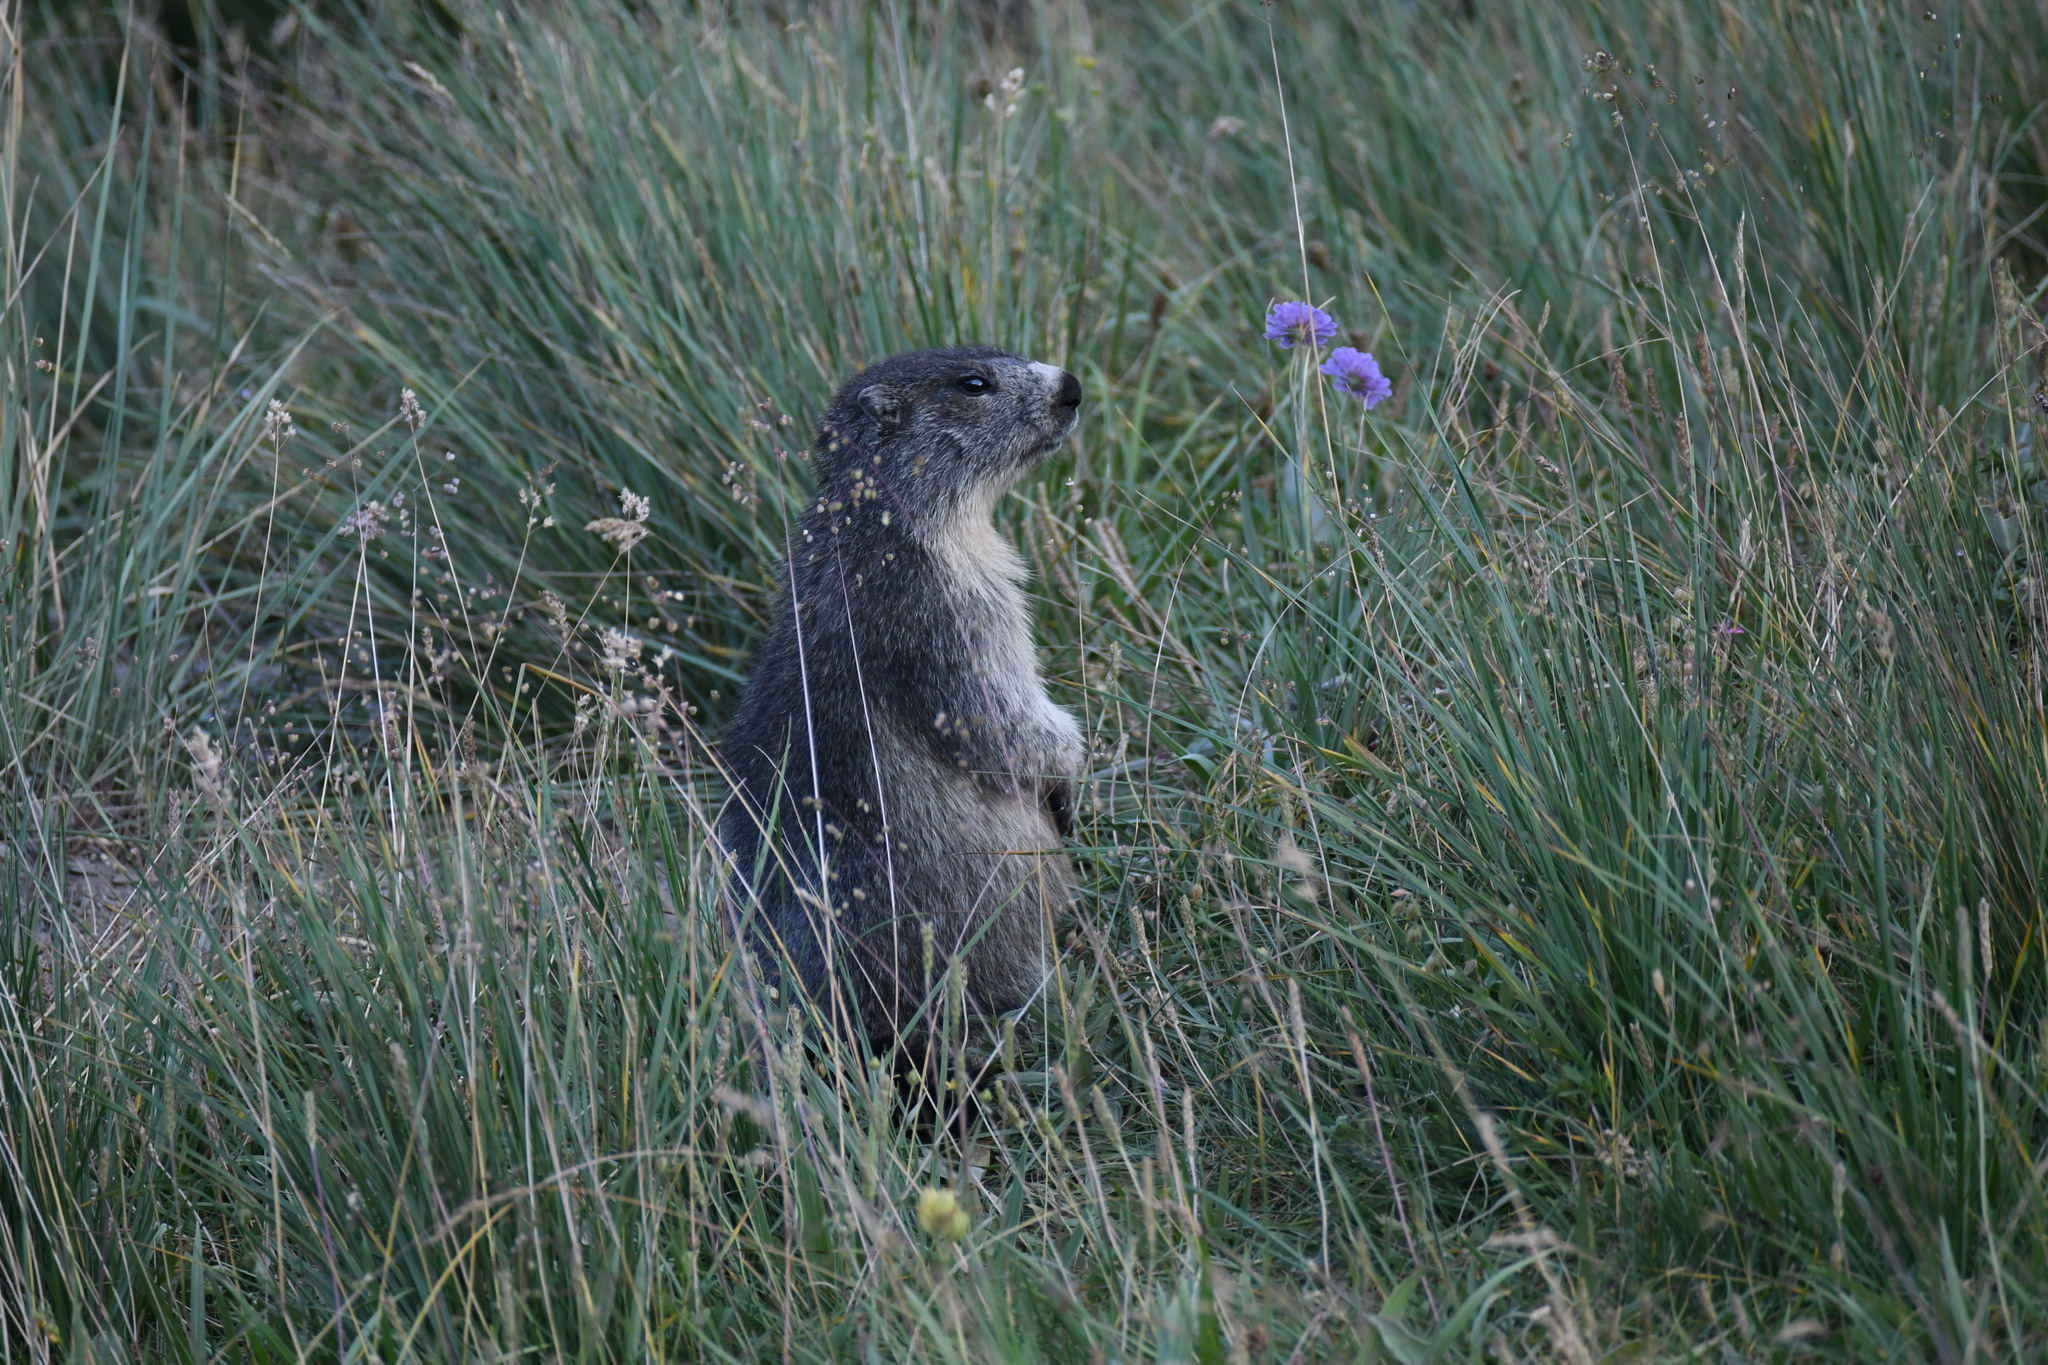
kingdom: Animalia
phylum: Chordata
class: Mammalia
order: Rodentia
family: Sciuridae
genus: Marmota
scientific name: Marmota marmota
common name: Alpine marmot
